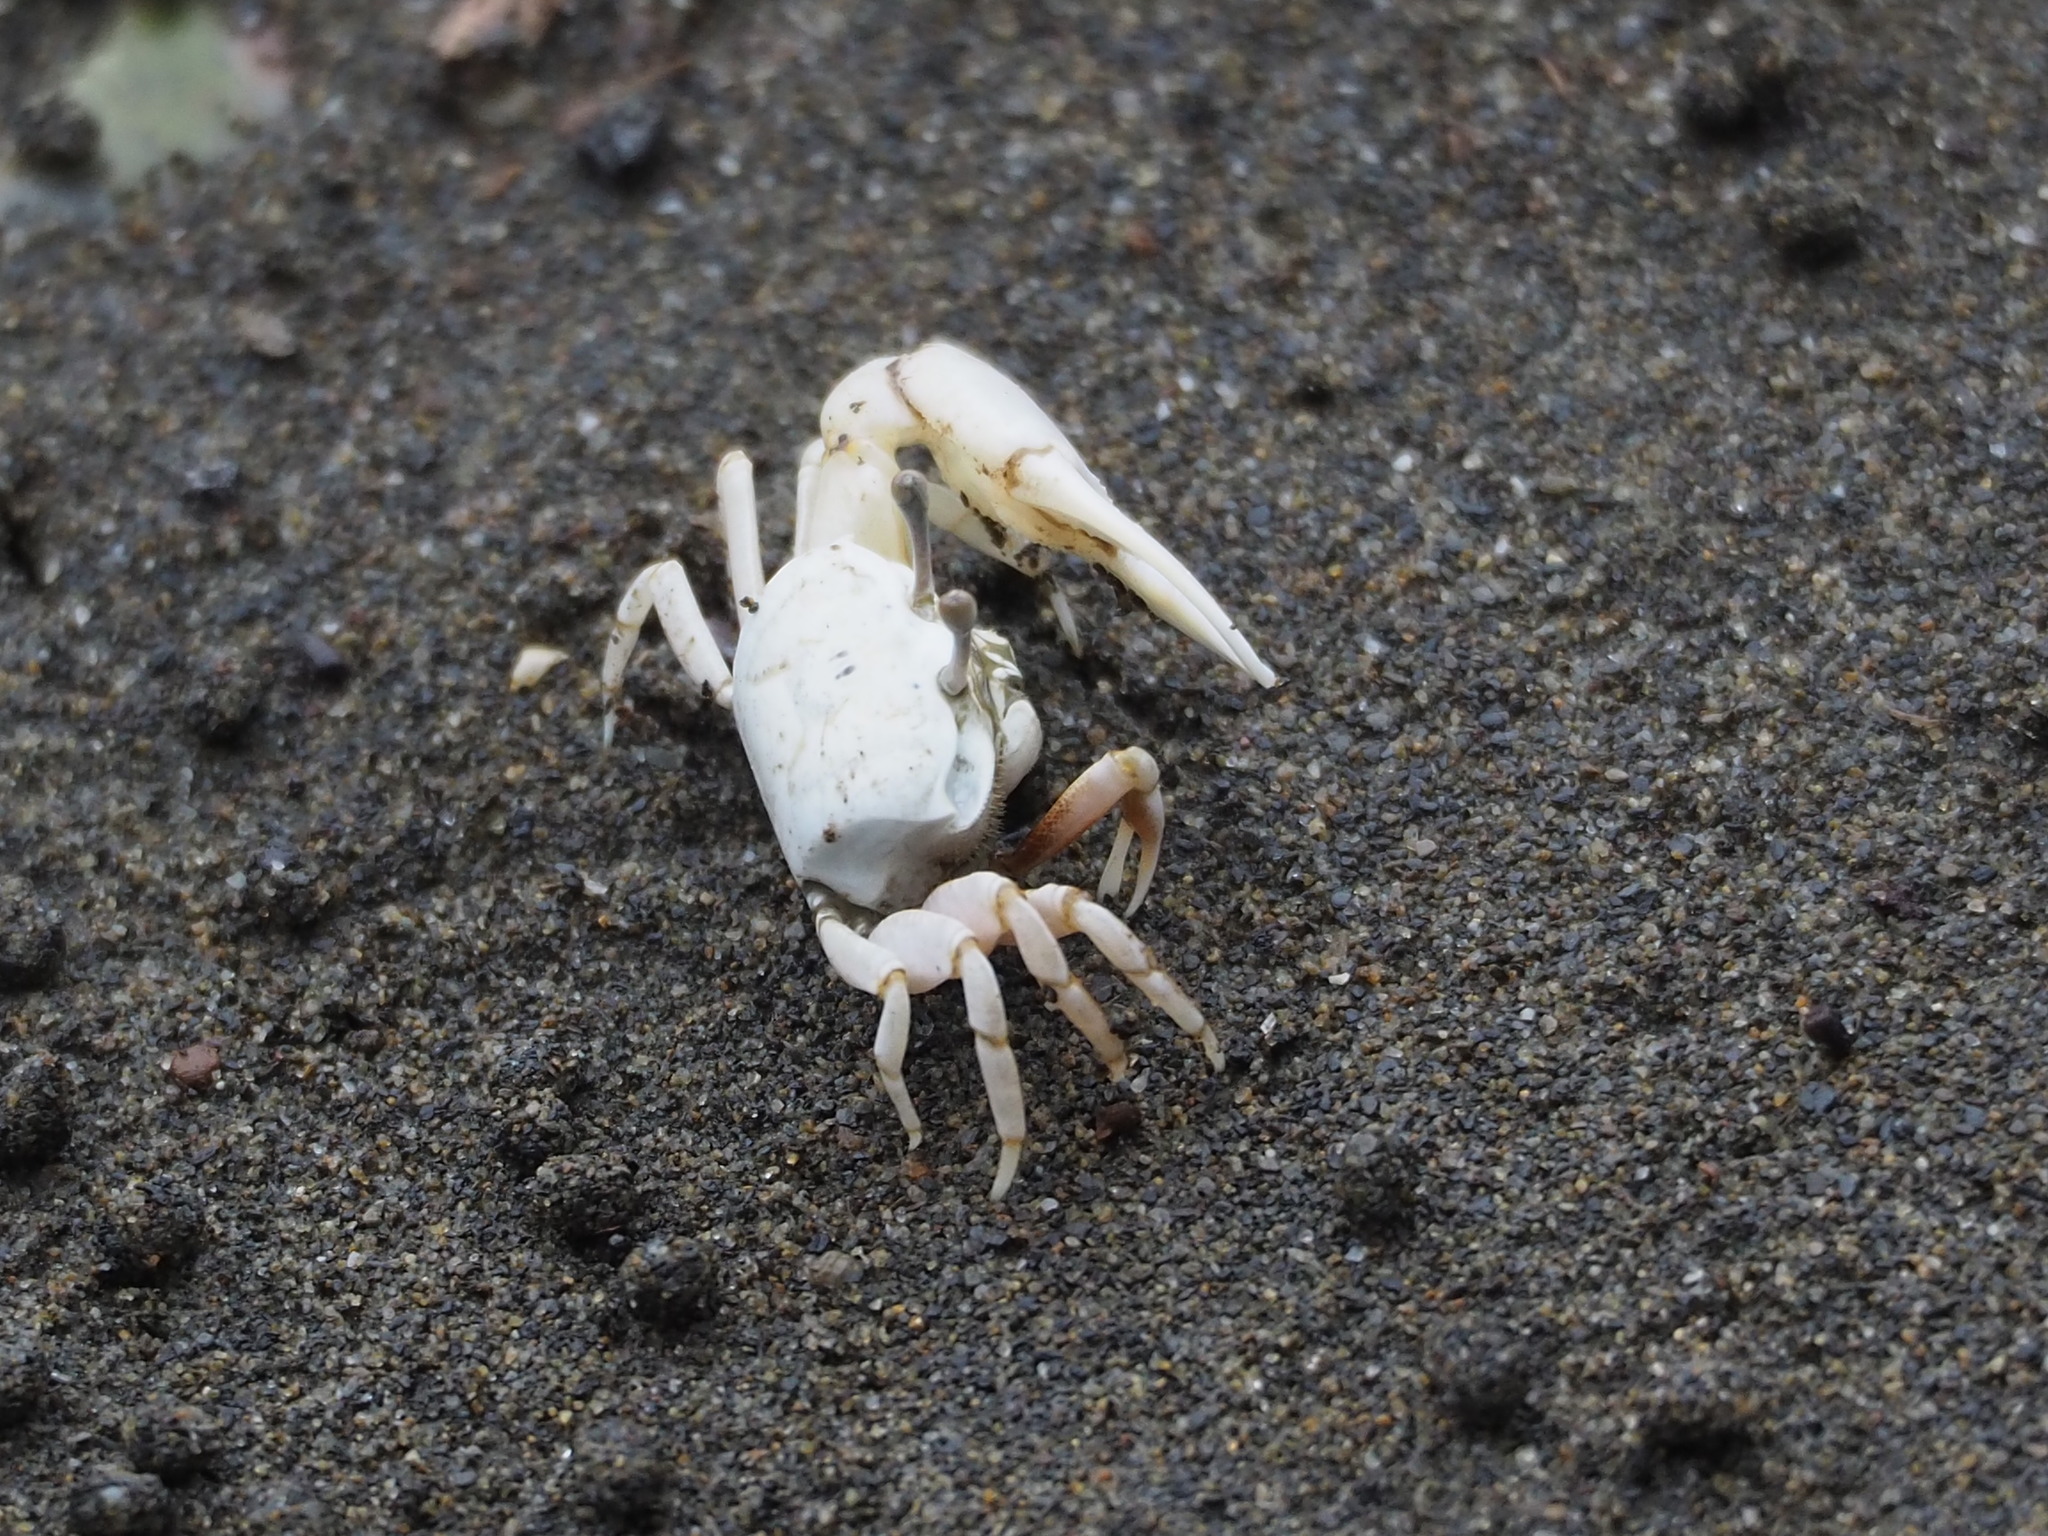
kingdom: Animalia
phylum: Arthropoda
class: Malacostraca
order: Decapoda
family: Ocypodidae
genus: Austruca
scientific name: Austruca lactea
